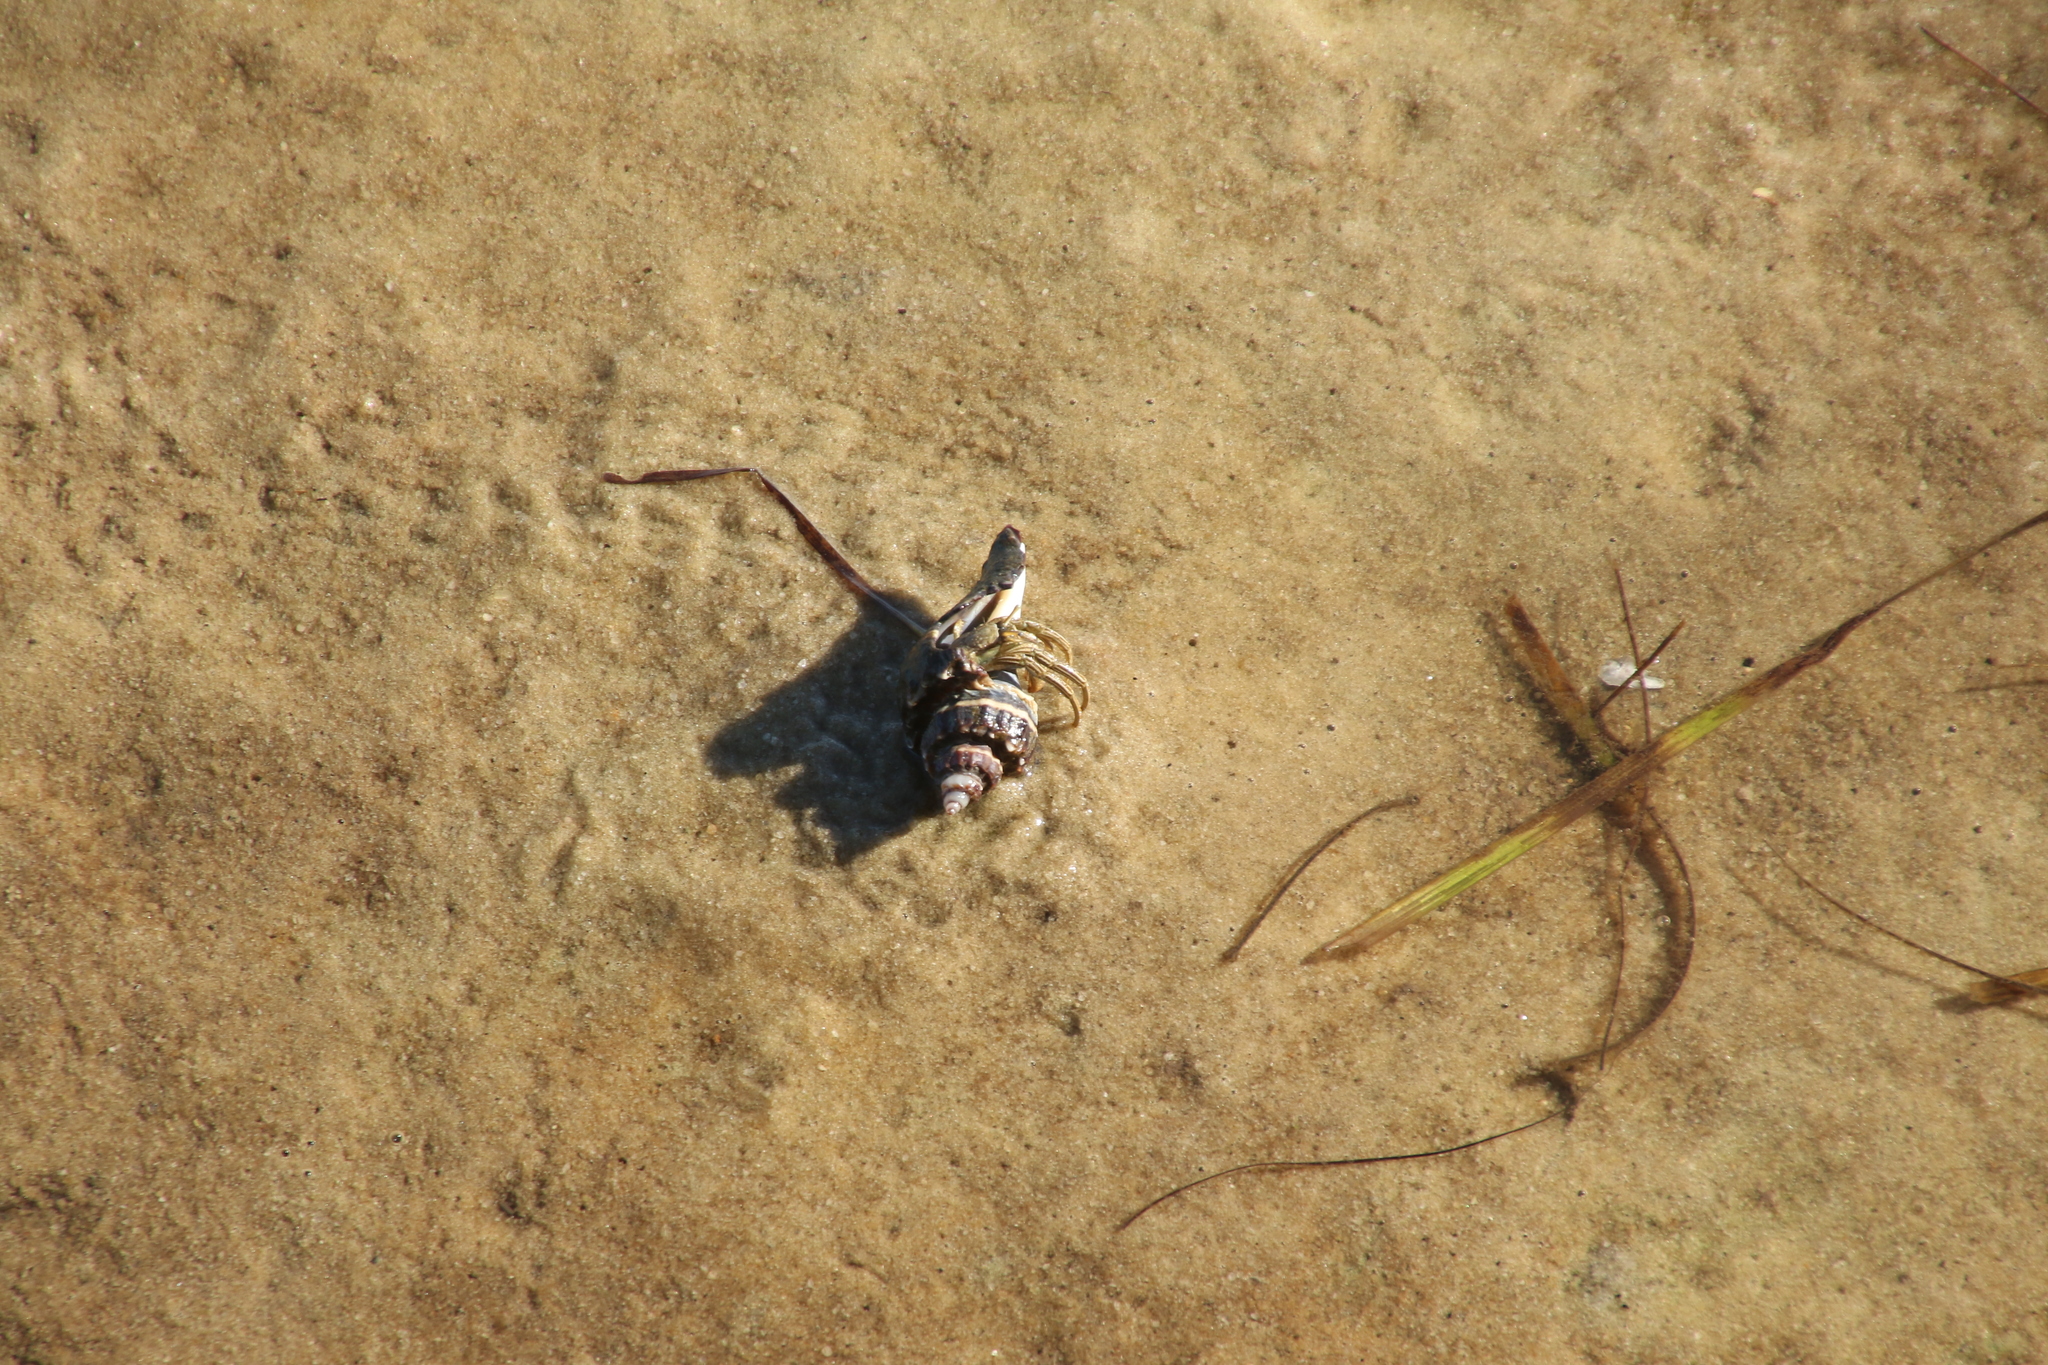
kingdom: Animalia
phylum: Arthropoda
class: Malacostraca
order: Decapoda
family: Diogenidae
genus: Clibanarius
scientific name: Clibanarius vittatus
